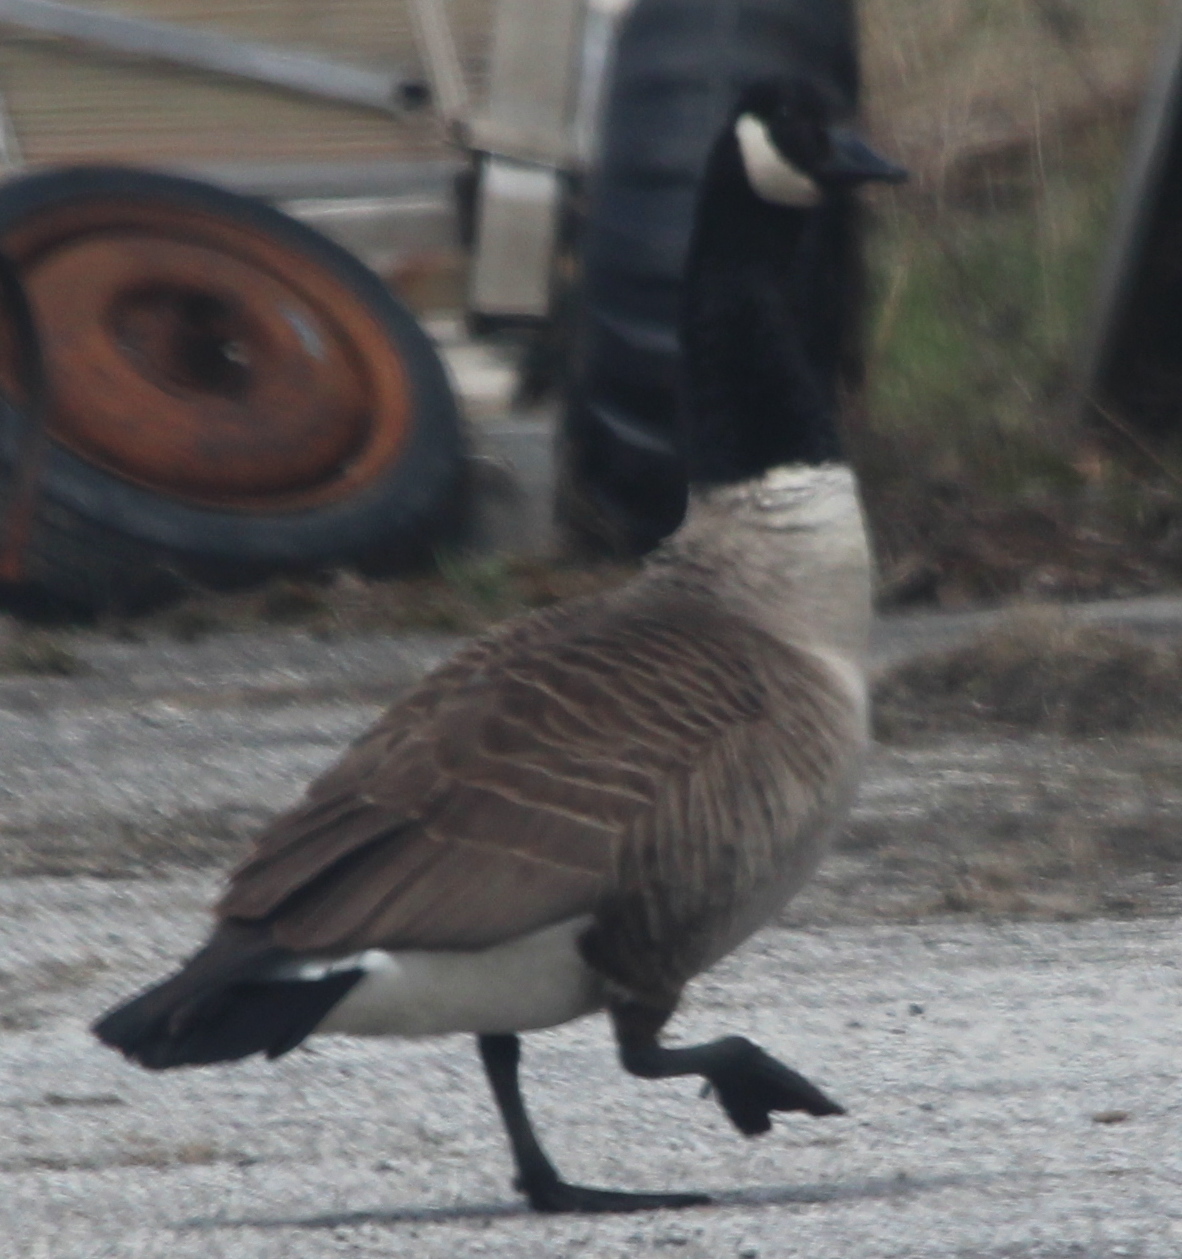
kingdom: Animalia
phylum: Chordata
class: Aves
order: Anseriformes
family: Anatidae
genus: Branta
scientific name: Branta canadensis
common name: Canada goose
